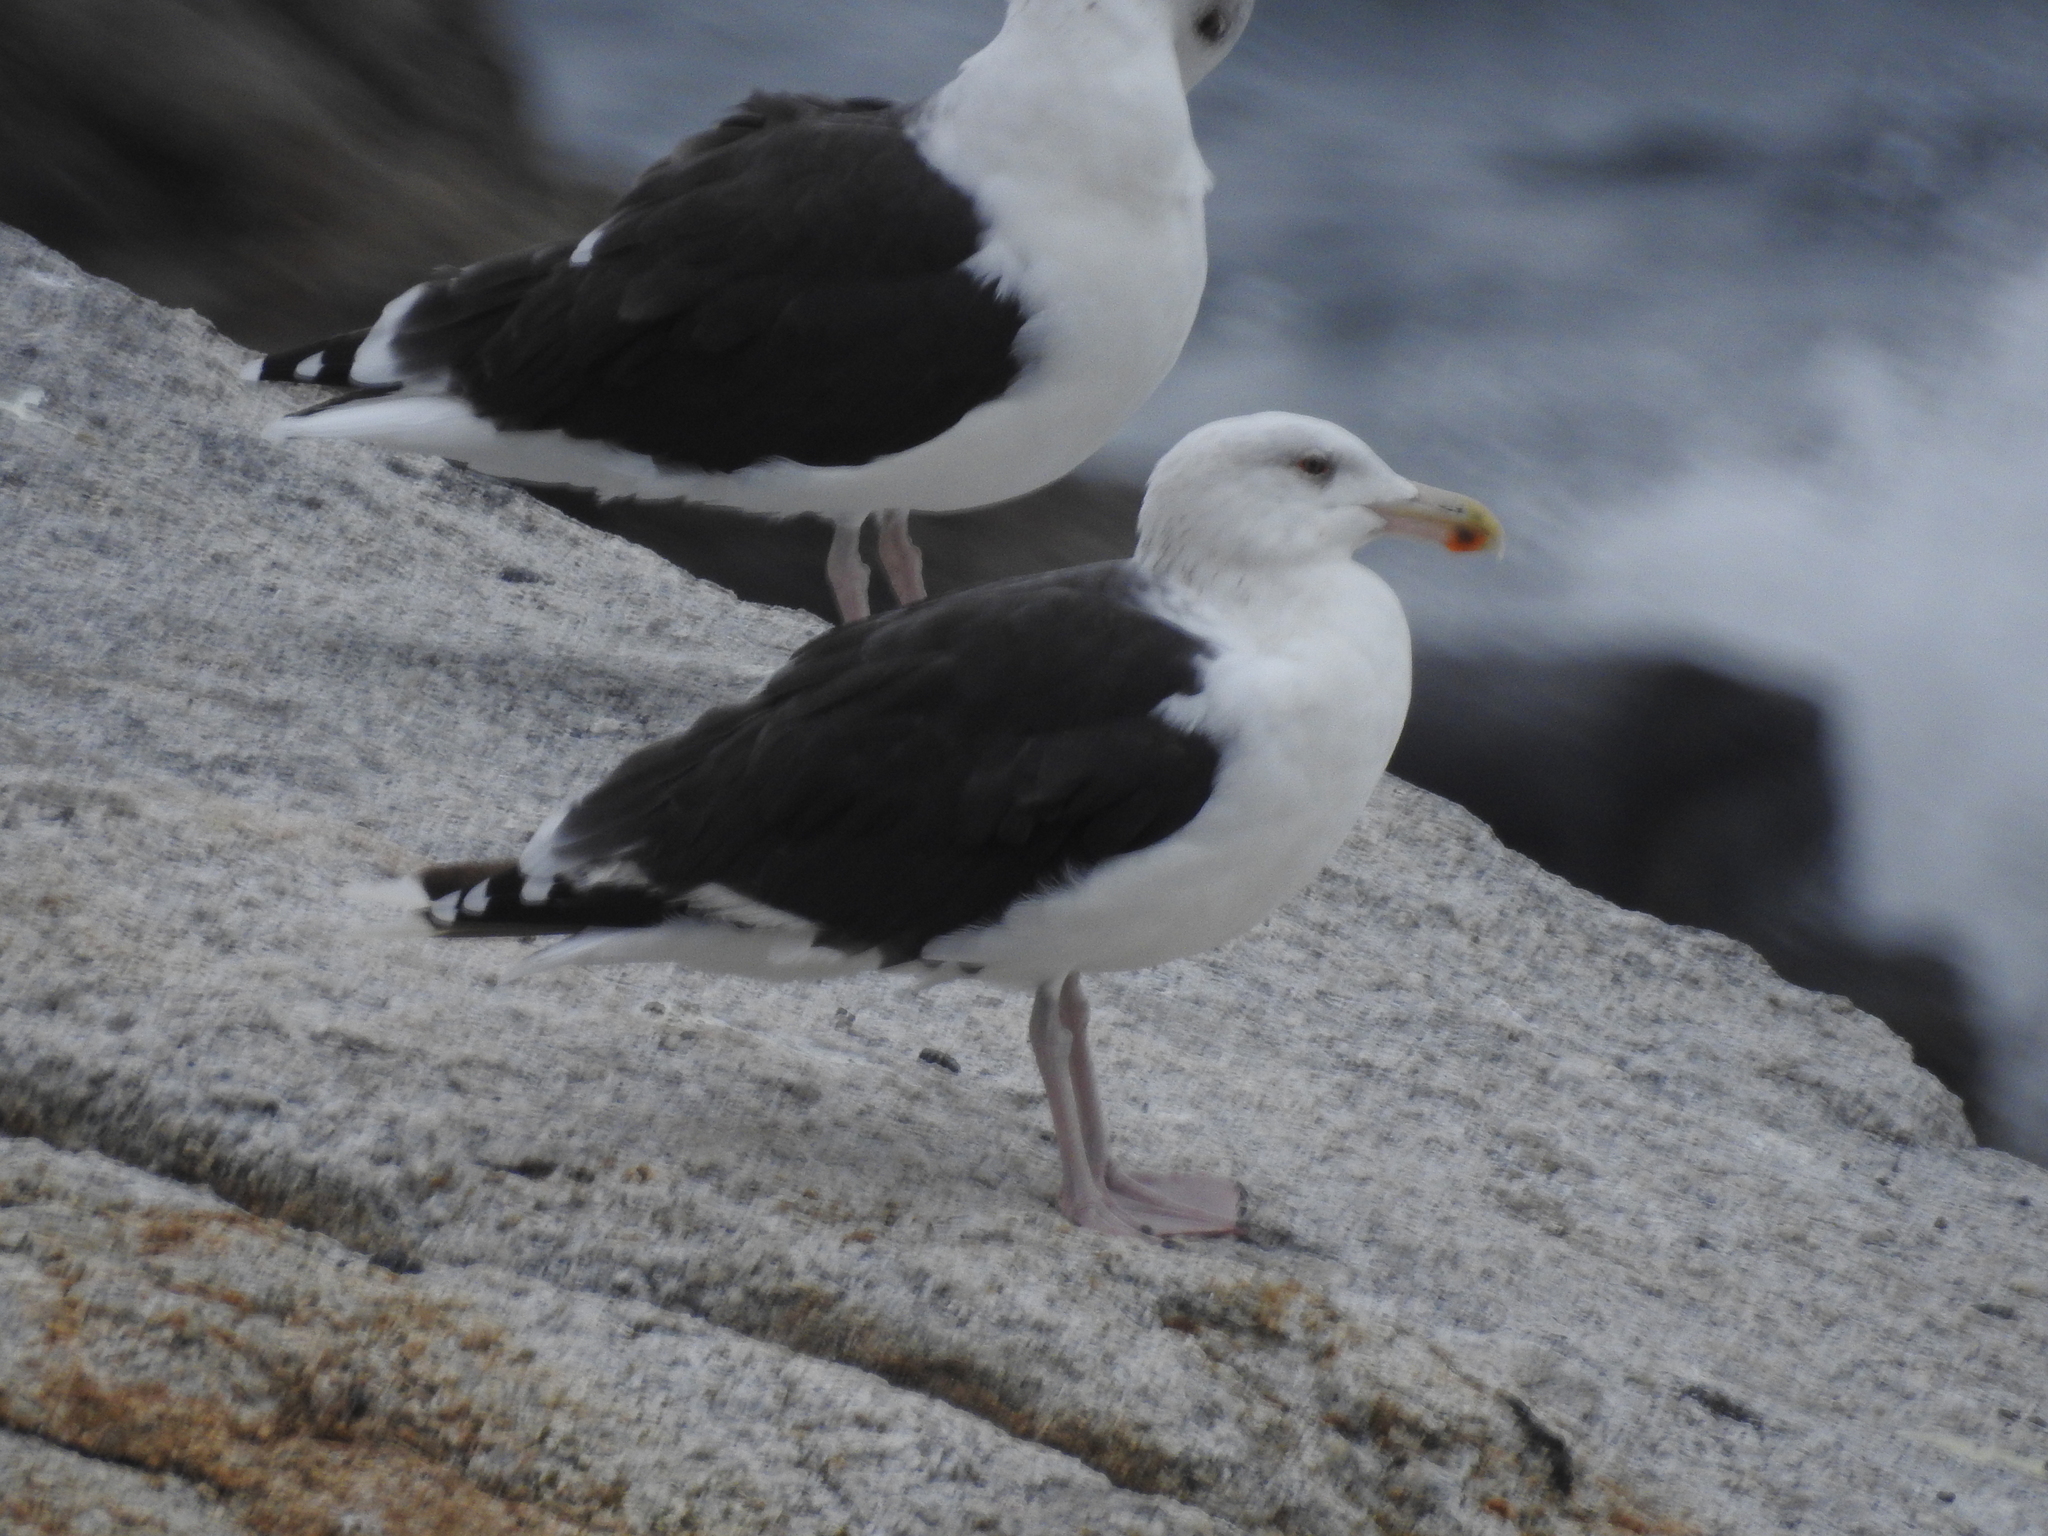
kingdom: Animalia
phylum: Chordata
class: Aves
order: Charadriiformes
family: Laridae
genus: Larus
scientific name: Larus marinus
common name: Great black-backed gull
